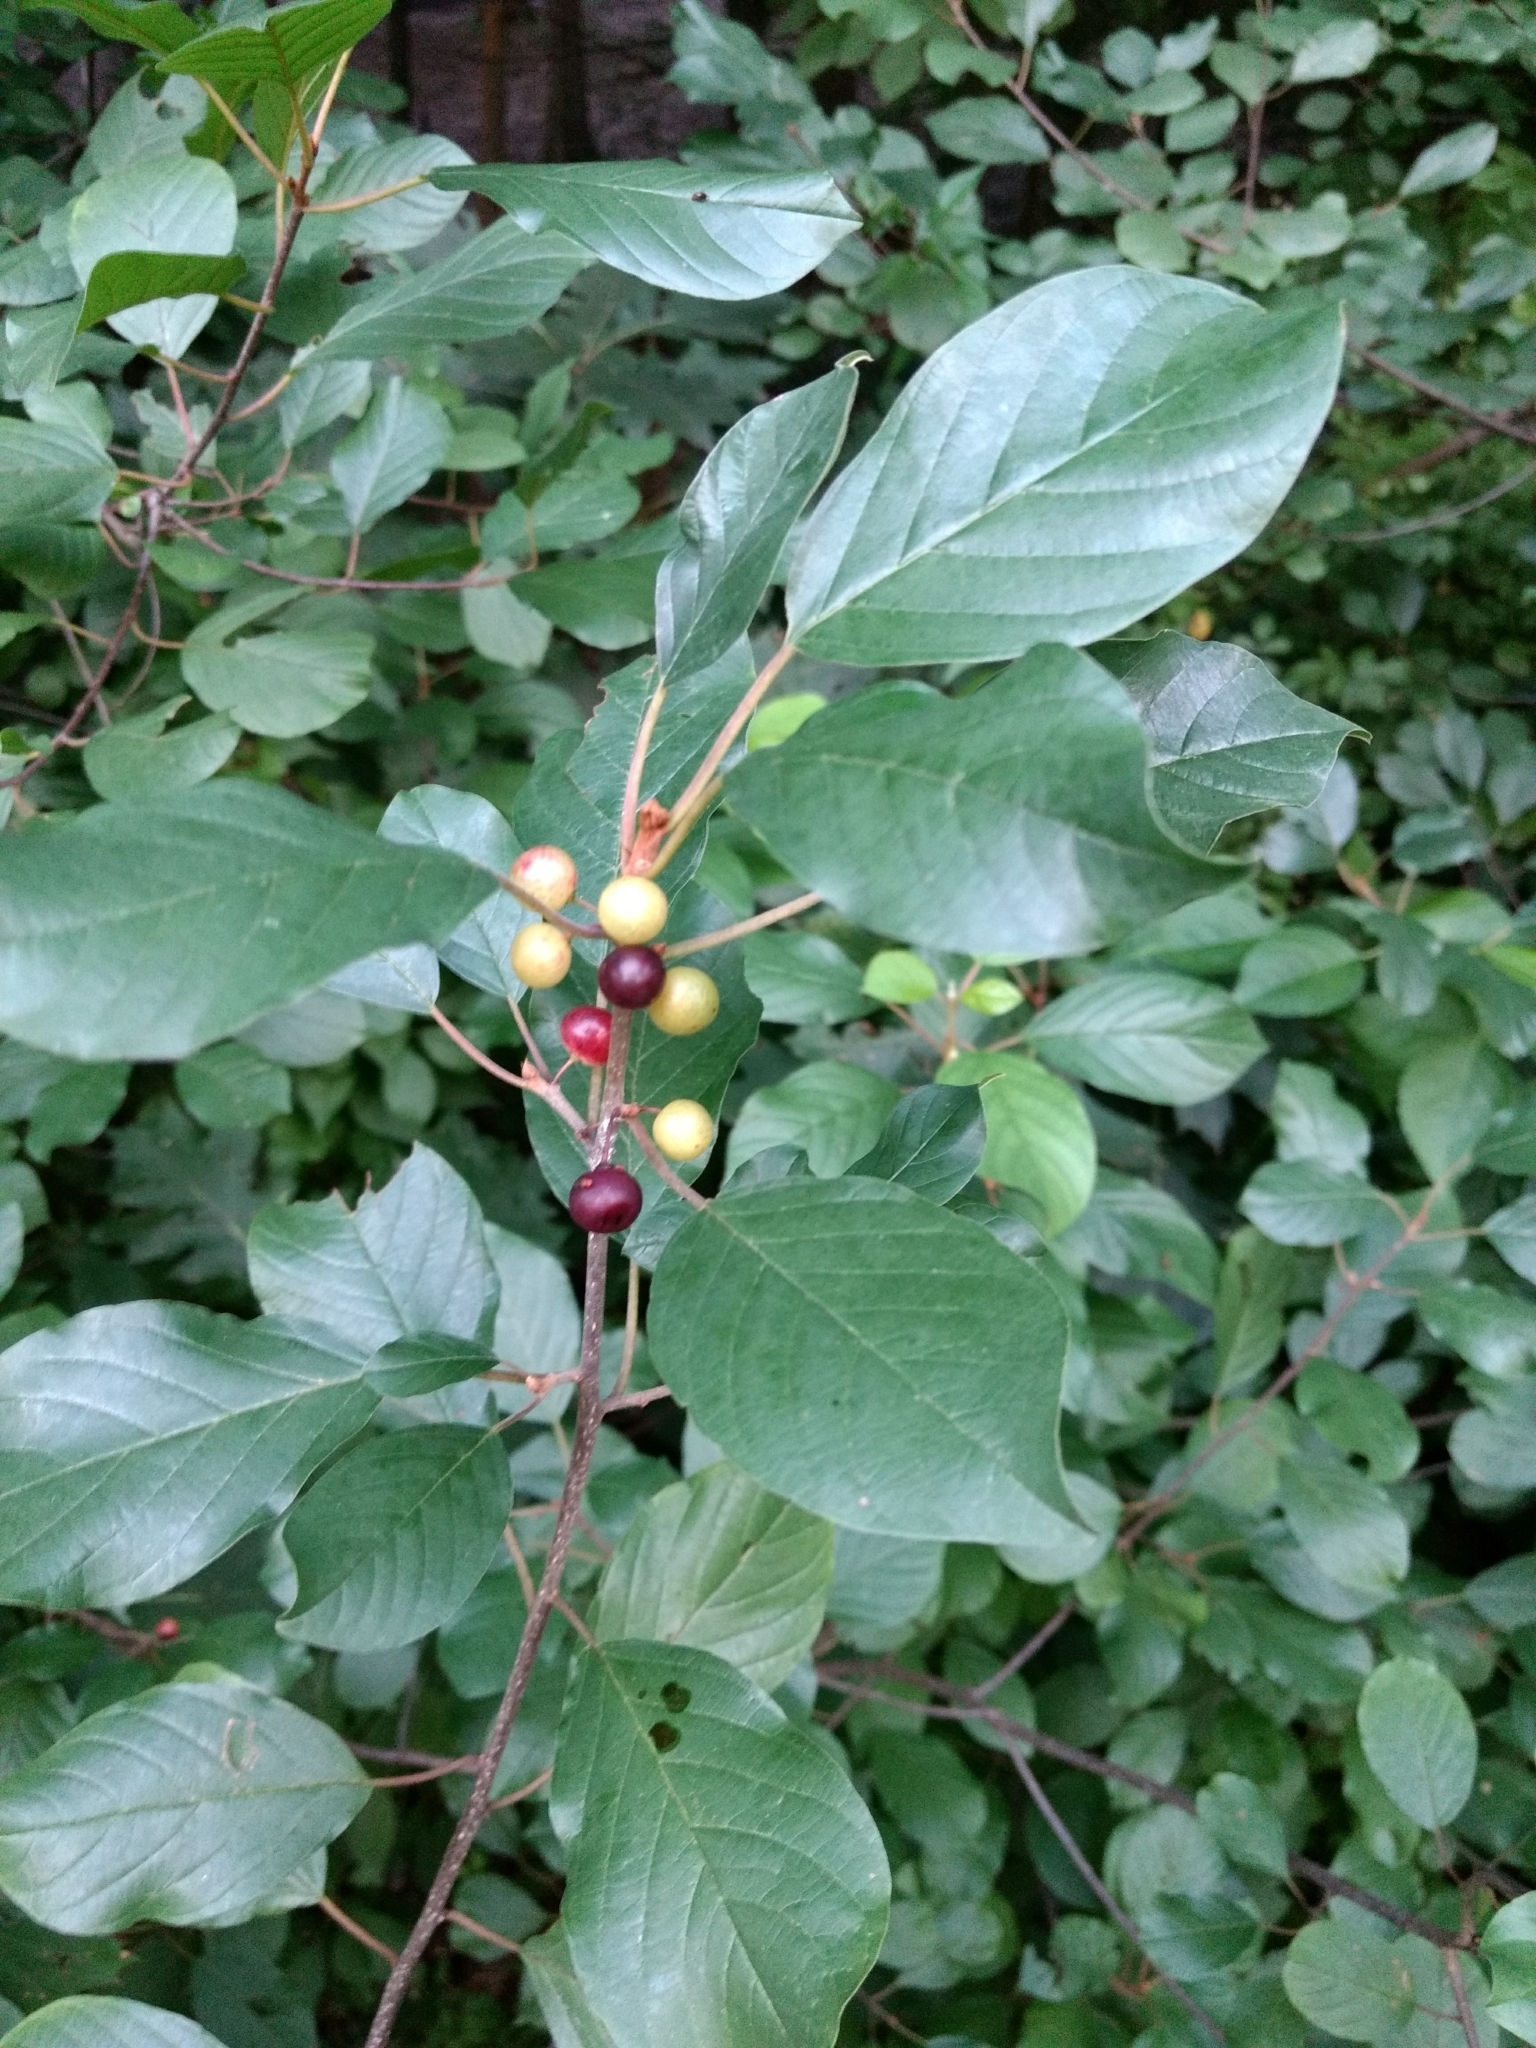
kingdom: Plantae
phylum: Tracheophyta
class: Magnoliopsida
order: Rosales
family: Rhamnaceae
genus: Frangula
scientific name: Frangula alnus
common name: Alder buckthorn
